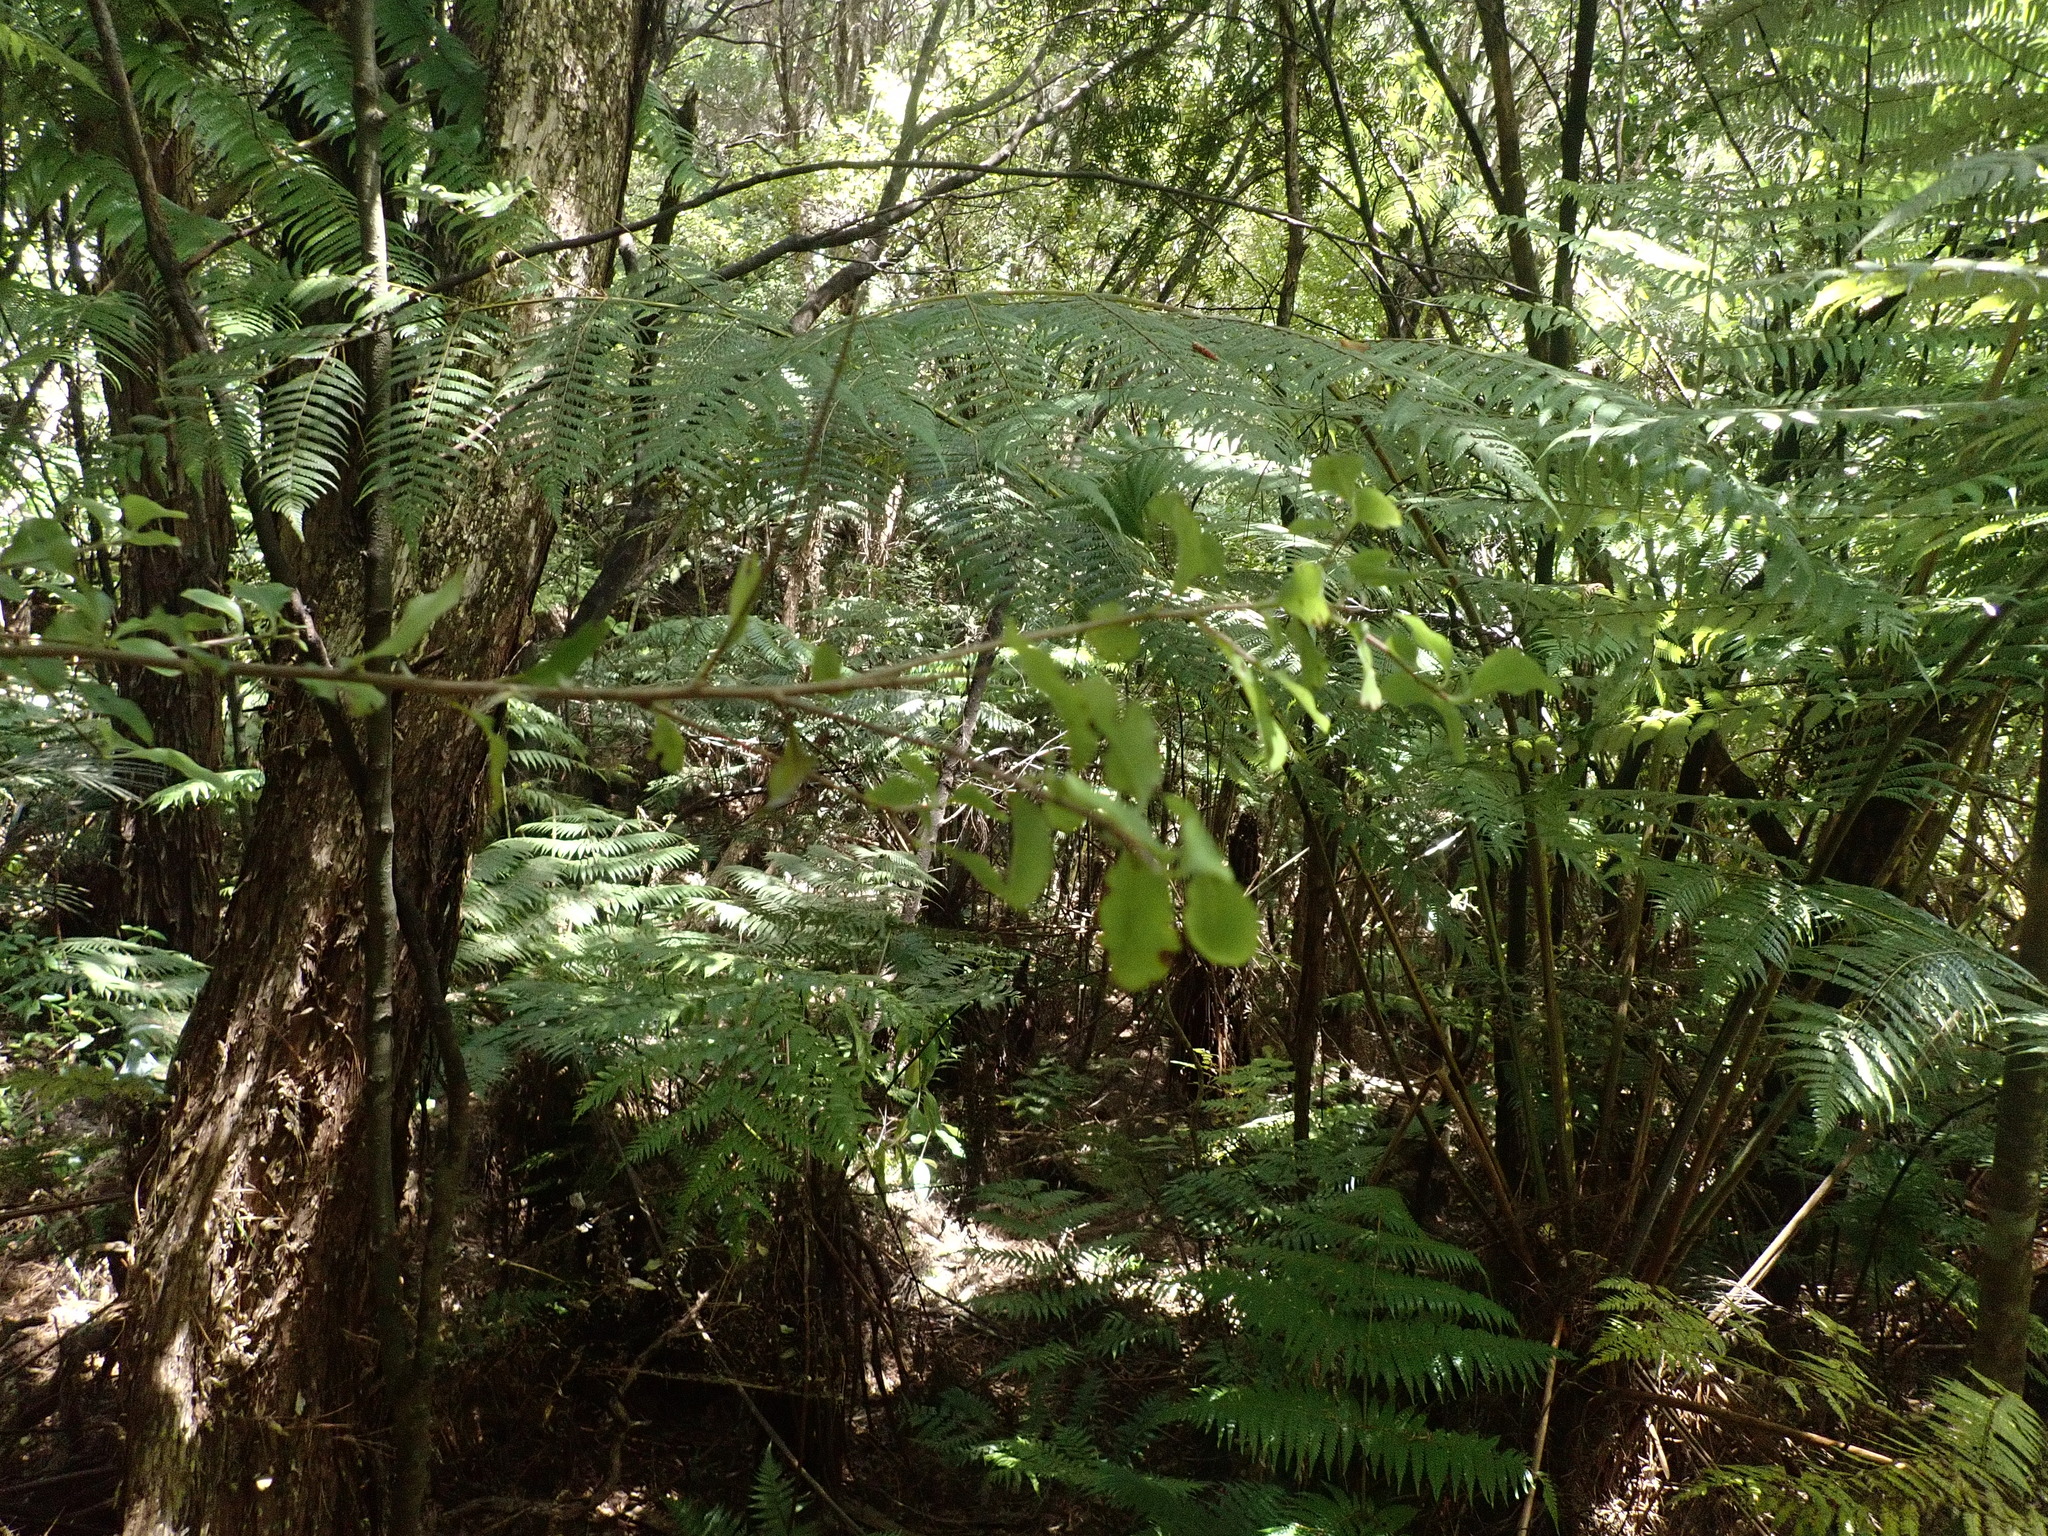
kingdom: Plantae
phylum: Tracheophyta
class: Polypodiopsida
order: Cyatheales
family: Cyatheaceae
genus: Alsophila
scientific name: Alsophila dealbata
